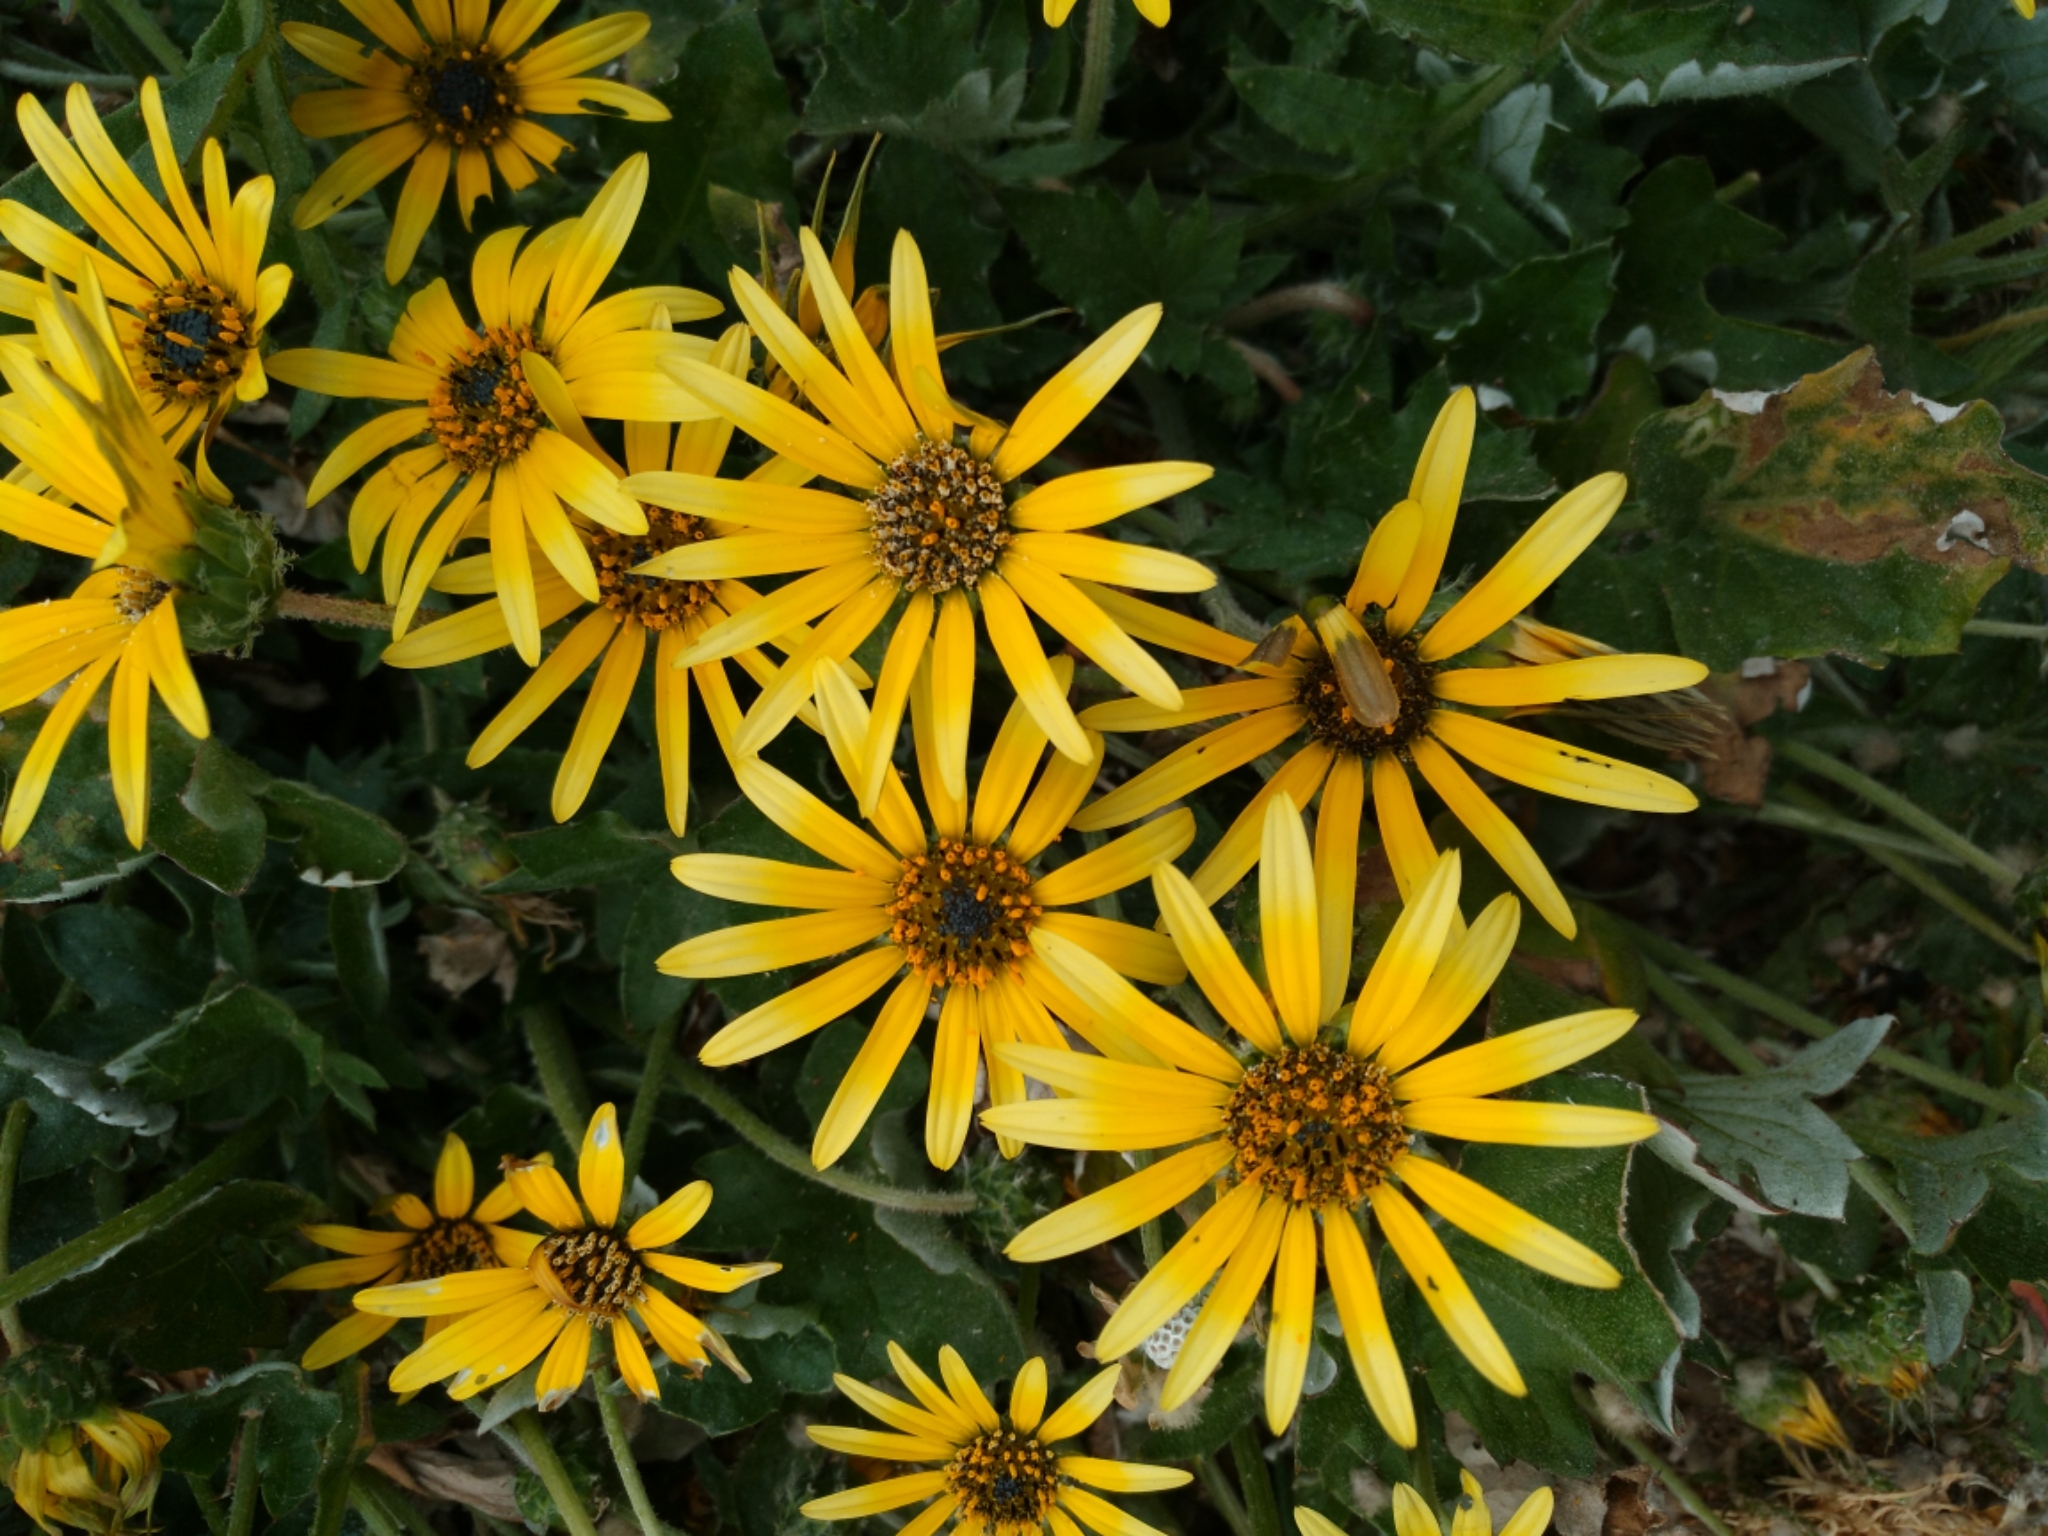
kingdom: Plantae
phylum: Tracheophyta
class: Magnoliopsida
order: Asterales
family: Asteraceae
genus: Arctotheca
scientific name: Arctotheca calendula
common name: Capeweed
